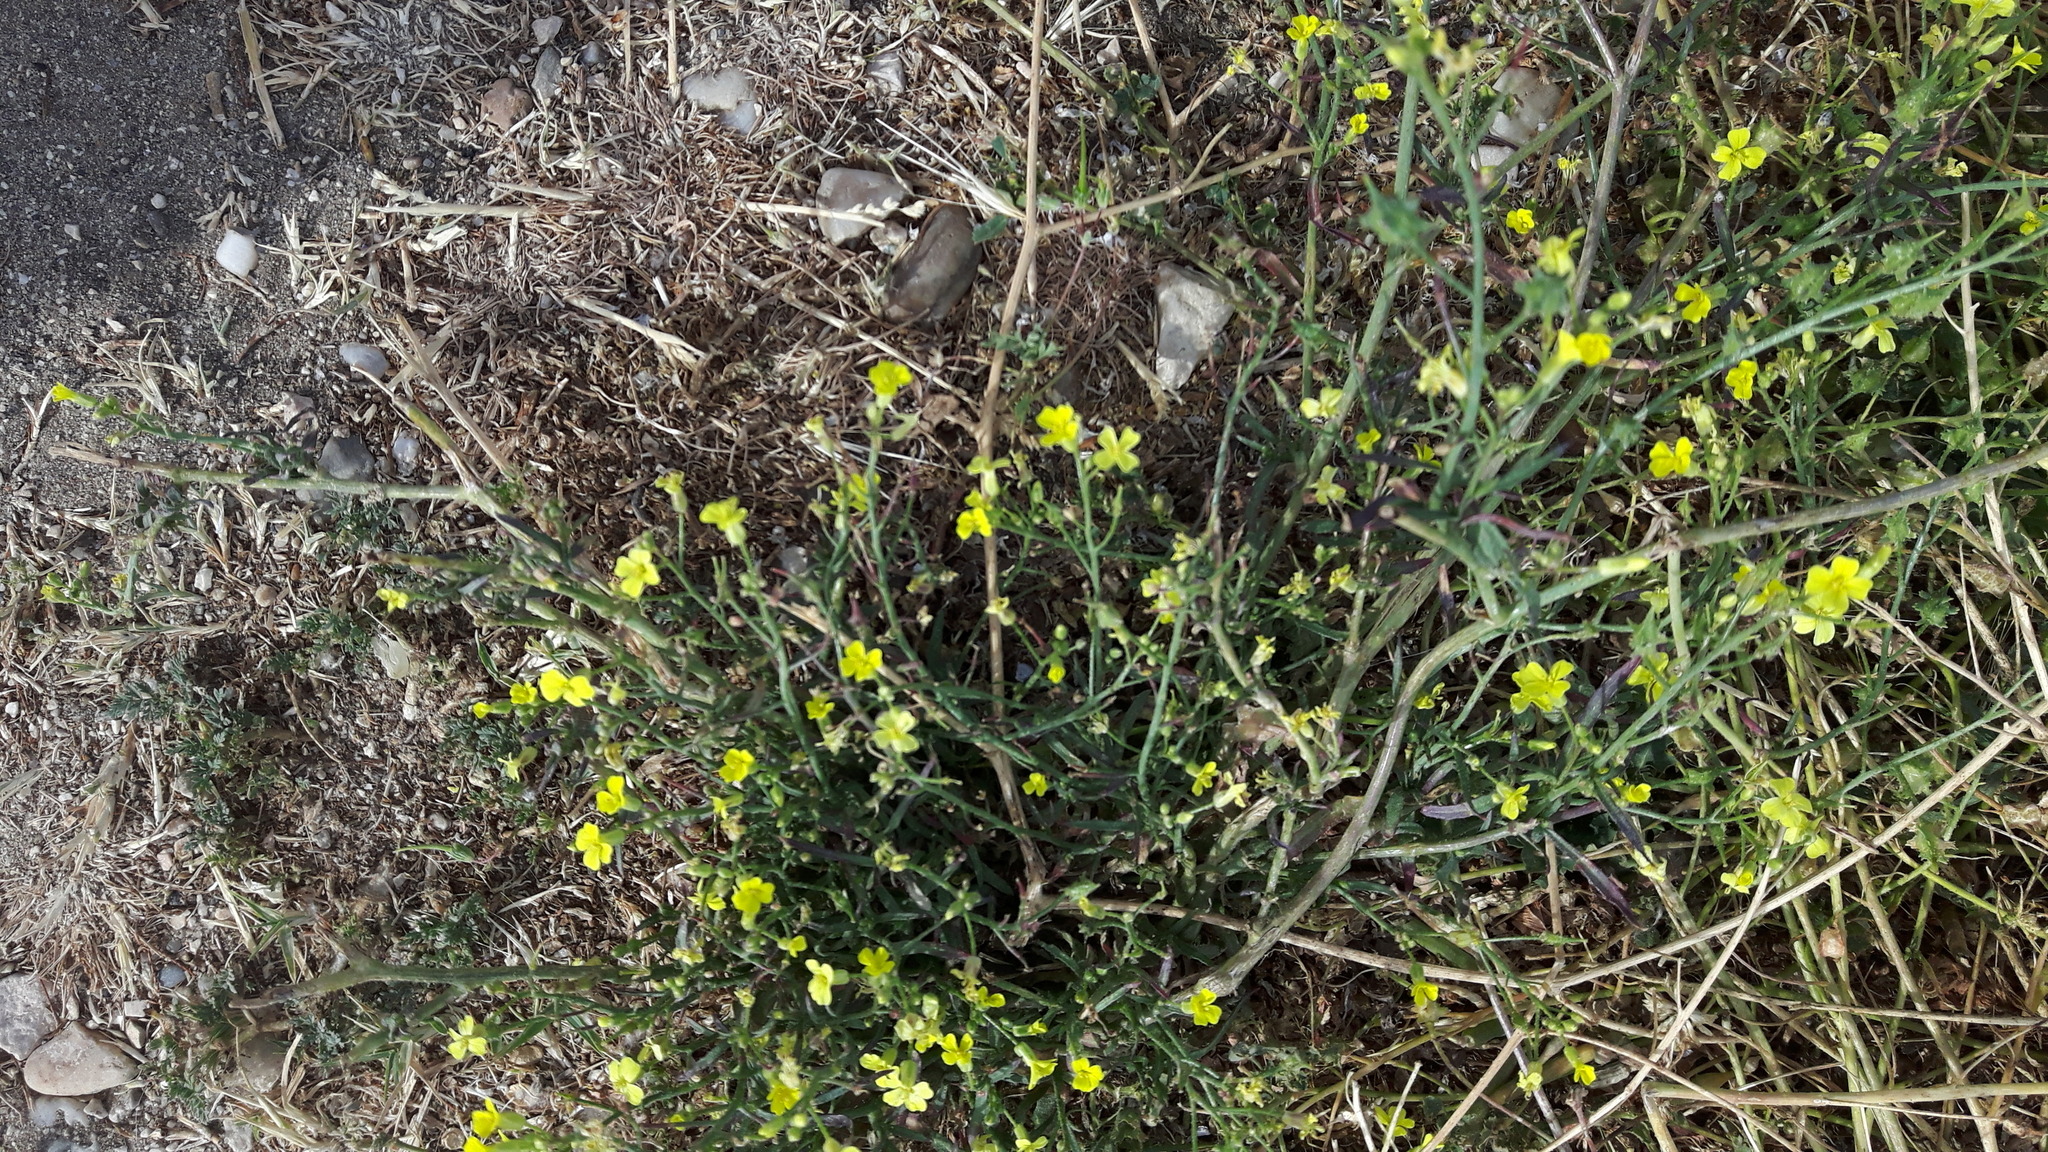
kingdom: Plantae
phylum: Tracheophyta
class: Magnoliopsida
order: Asterales
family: Asteraceae
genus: Lactuca
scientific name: Lactuca viminea
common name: Pliant lettuce
